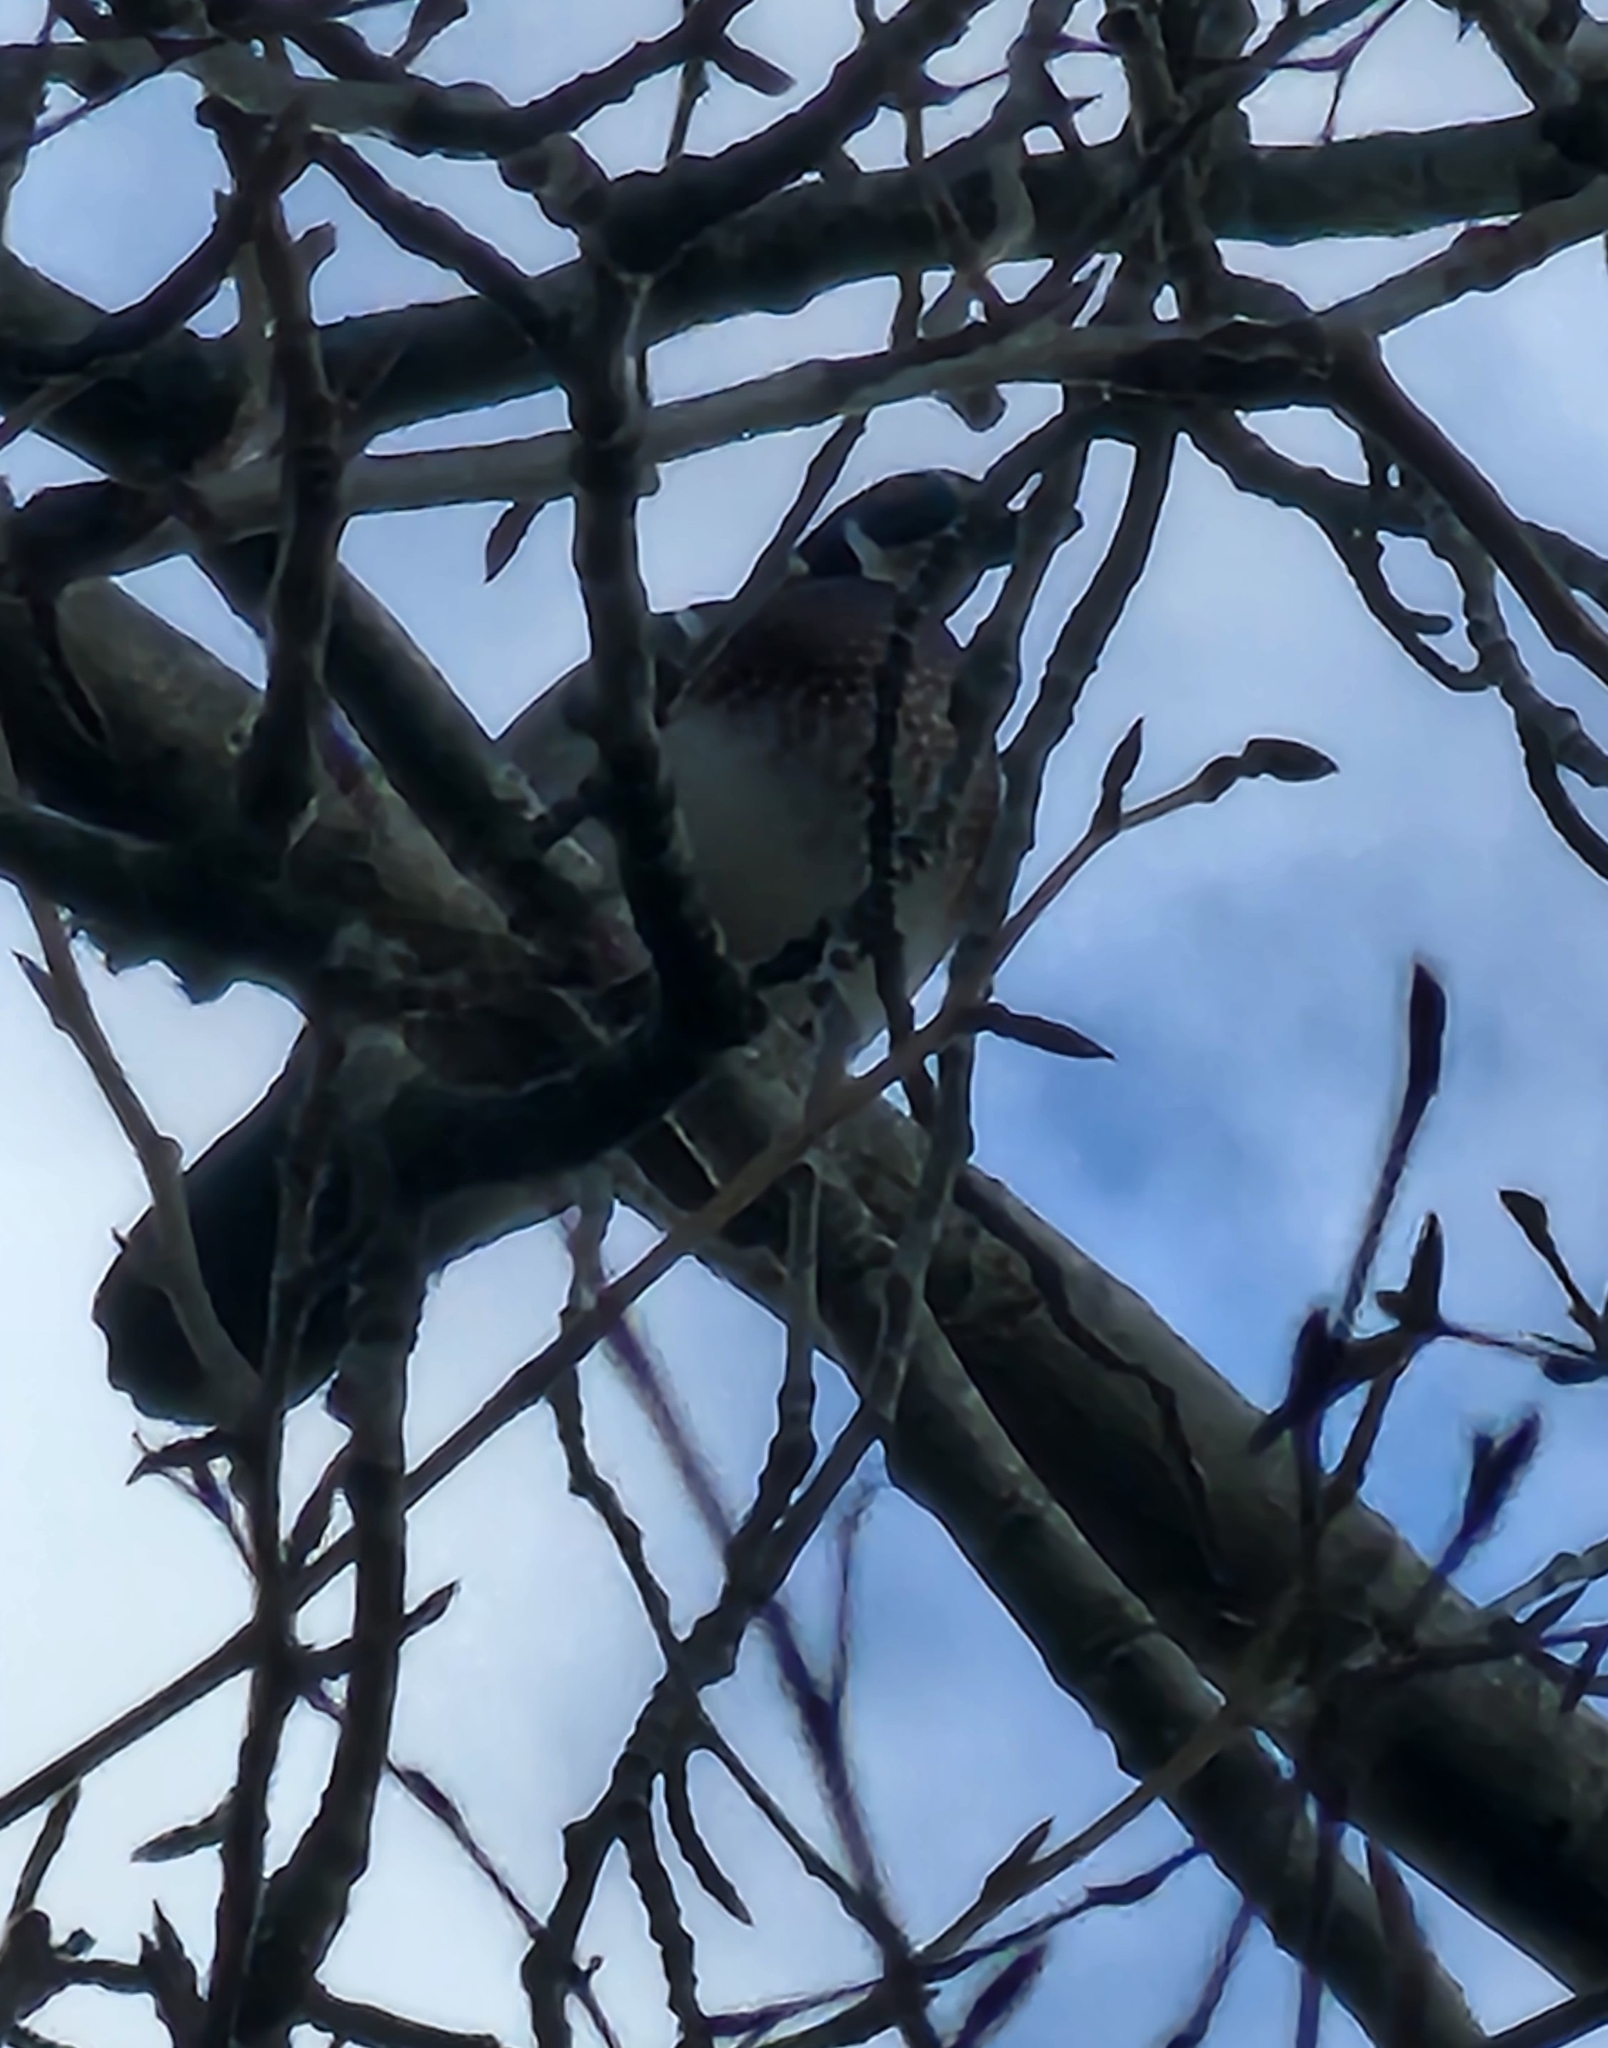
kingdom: Animalia
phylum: Chordata
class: Aves
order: Anseriformes
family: Anatidae
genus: Aix
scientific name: Aix sponsa
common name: Wood duck
